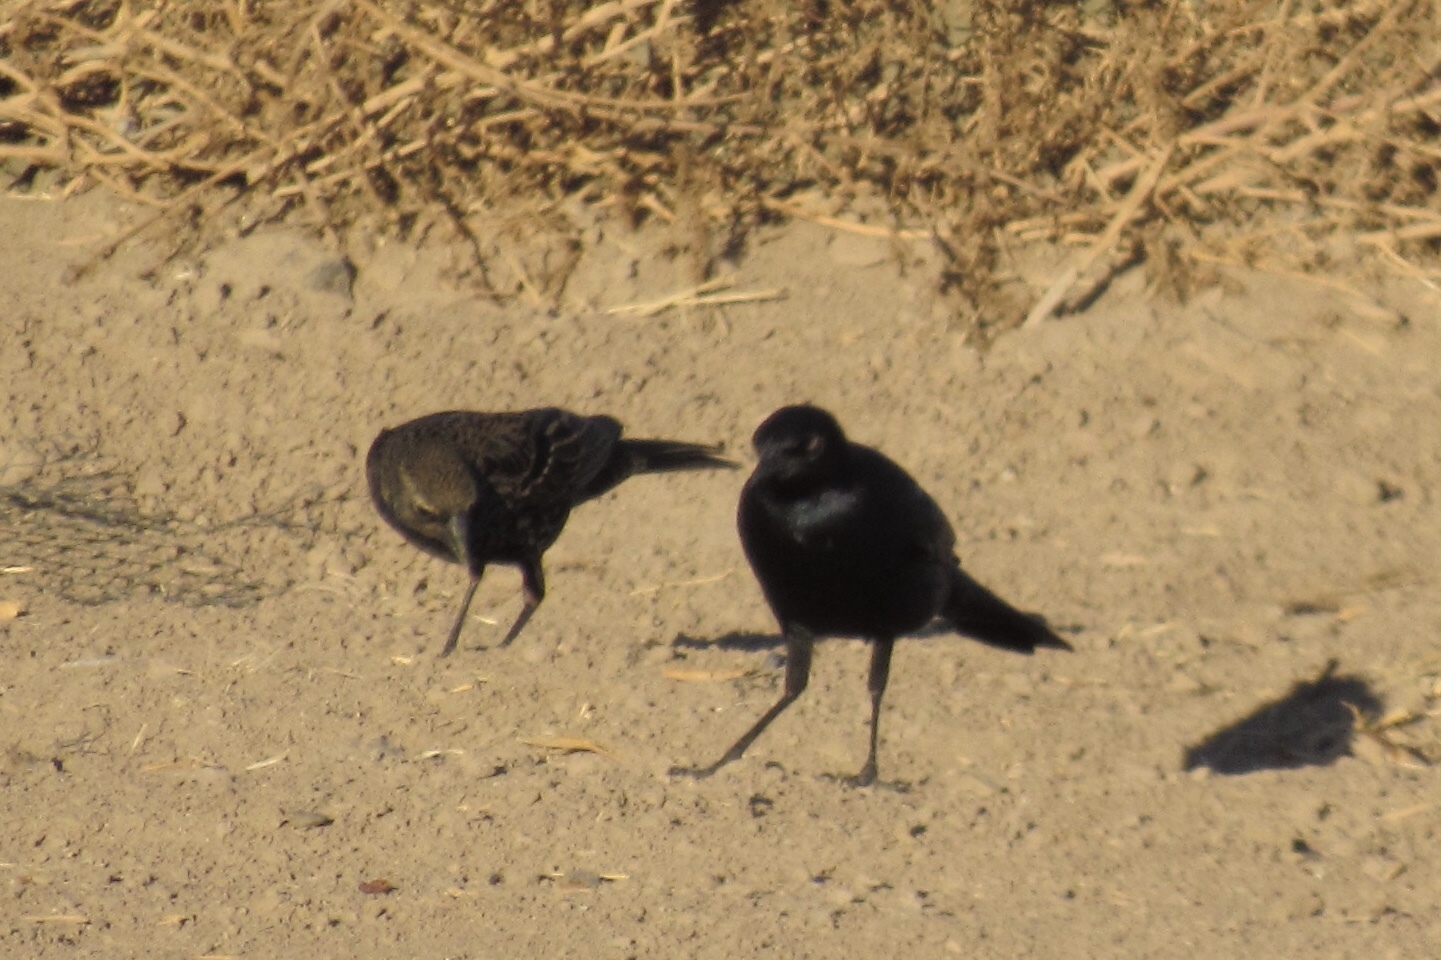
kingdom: Animalia
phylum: Chordata
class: Aves
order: Passeriformes
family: Icteridae
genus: Euphagus
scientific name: Euphagus cyanocephalus
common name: Brewer's blackbird
